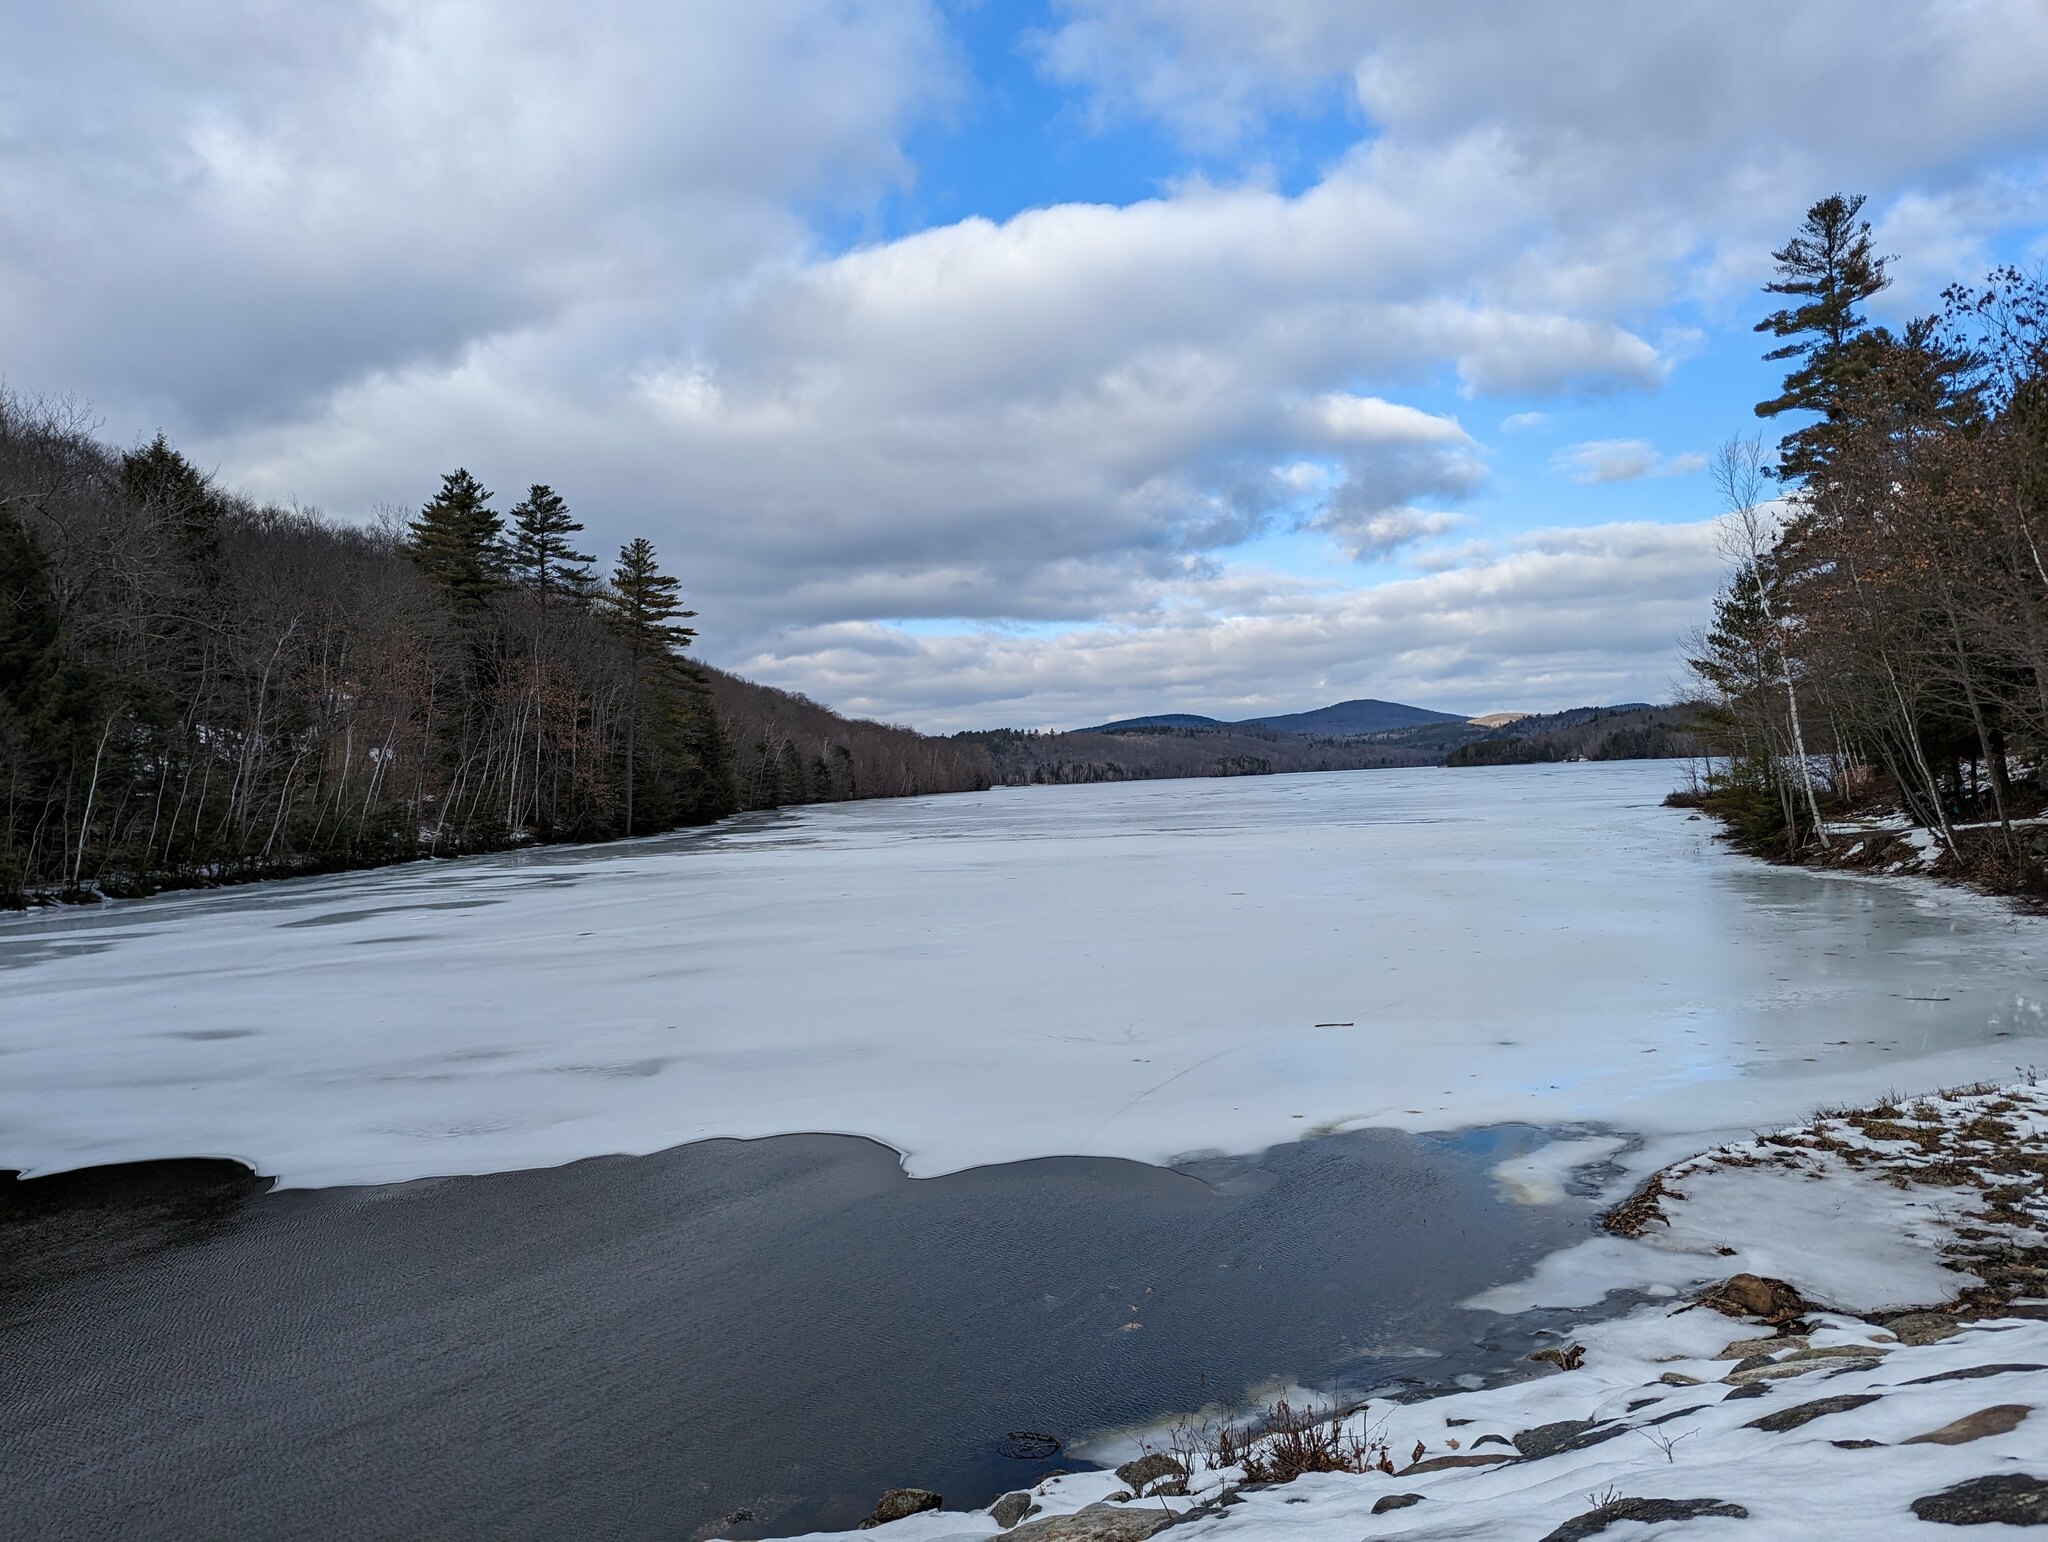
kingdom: Plantae
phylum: Tracheophyta
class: Pinopsida
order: Pinales
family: Pinaceae
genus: Pinus
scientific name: Pinus strobus
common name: Weymouth pine
